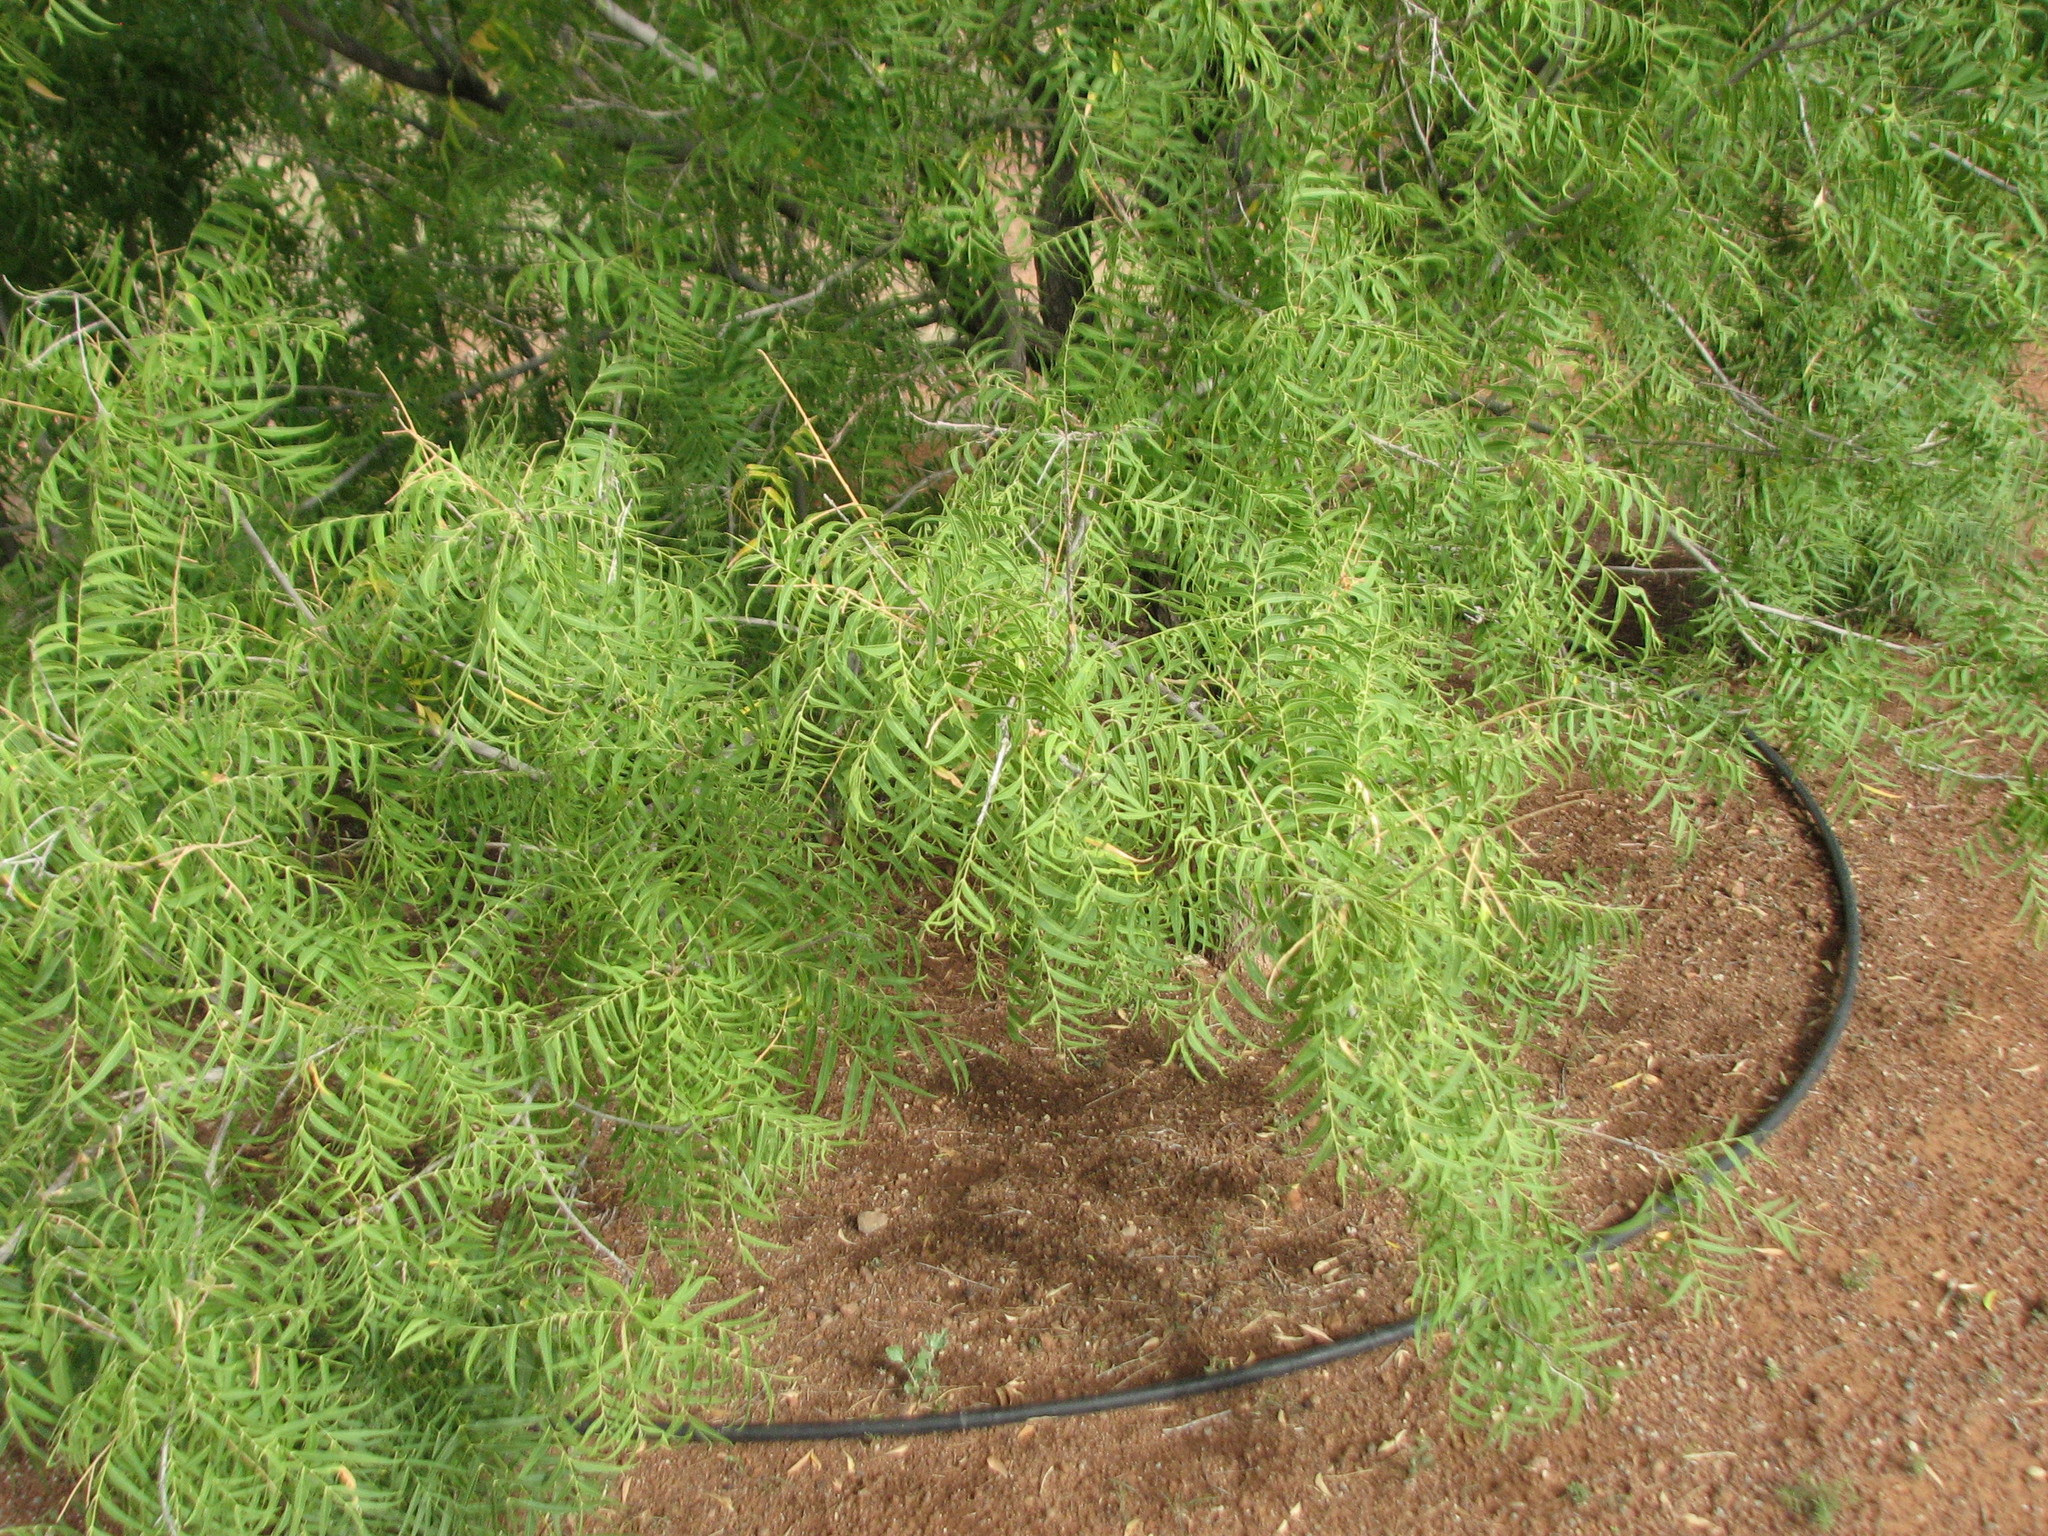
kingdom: Plantae
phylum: Tracheophyta
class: Magnoliopsida
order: Sapindales
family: Sapindaceae
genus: Sapindus
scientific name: Sapindus drummondii
